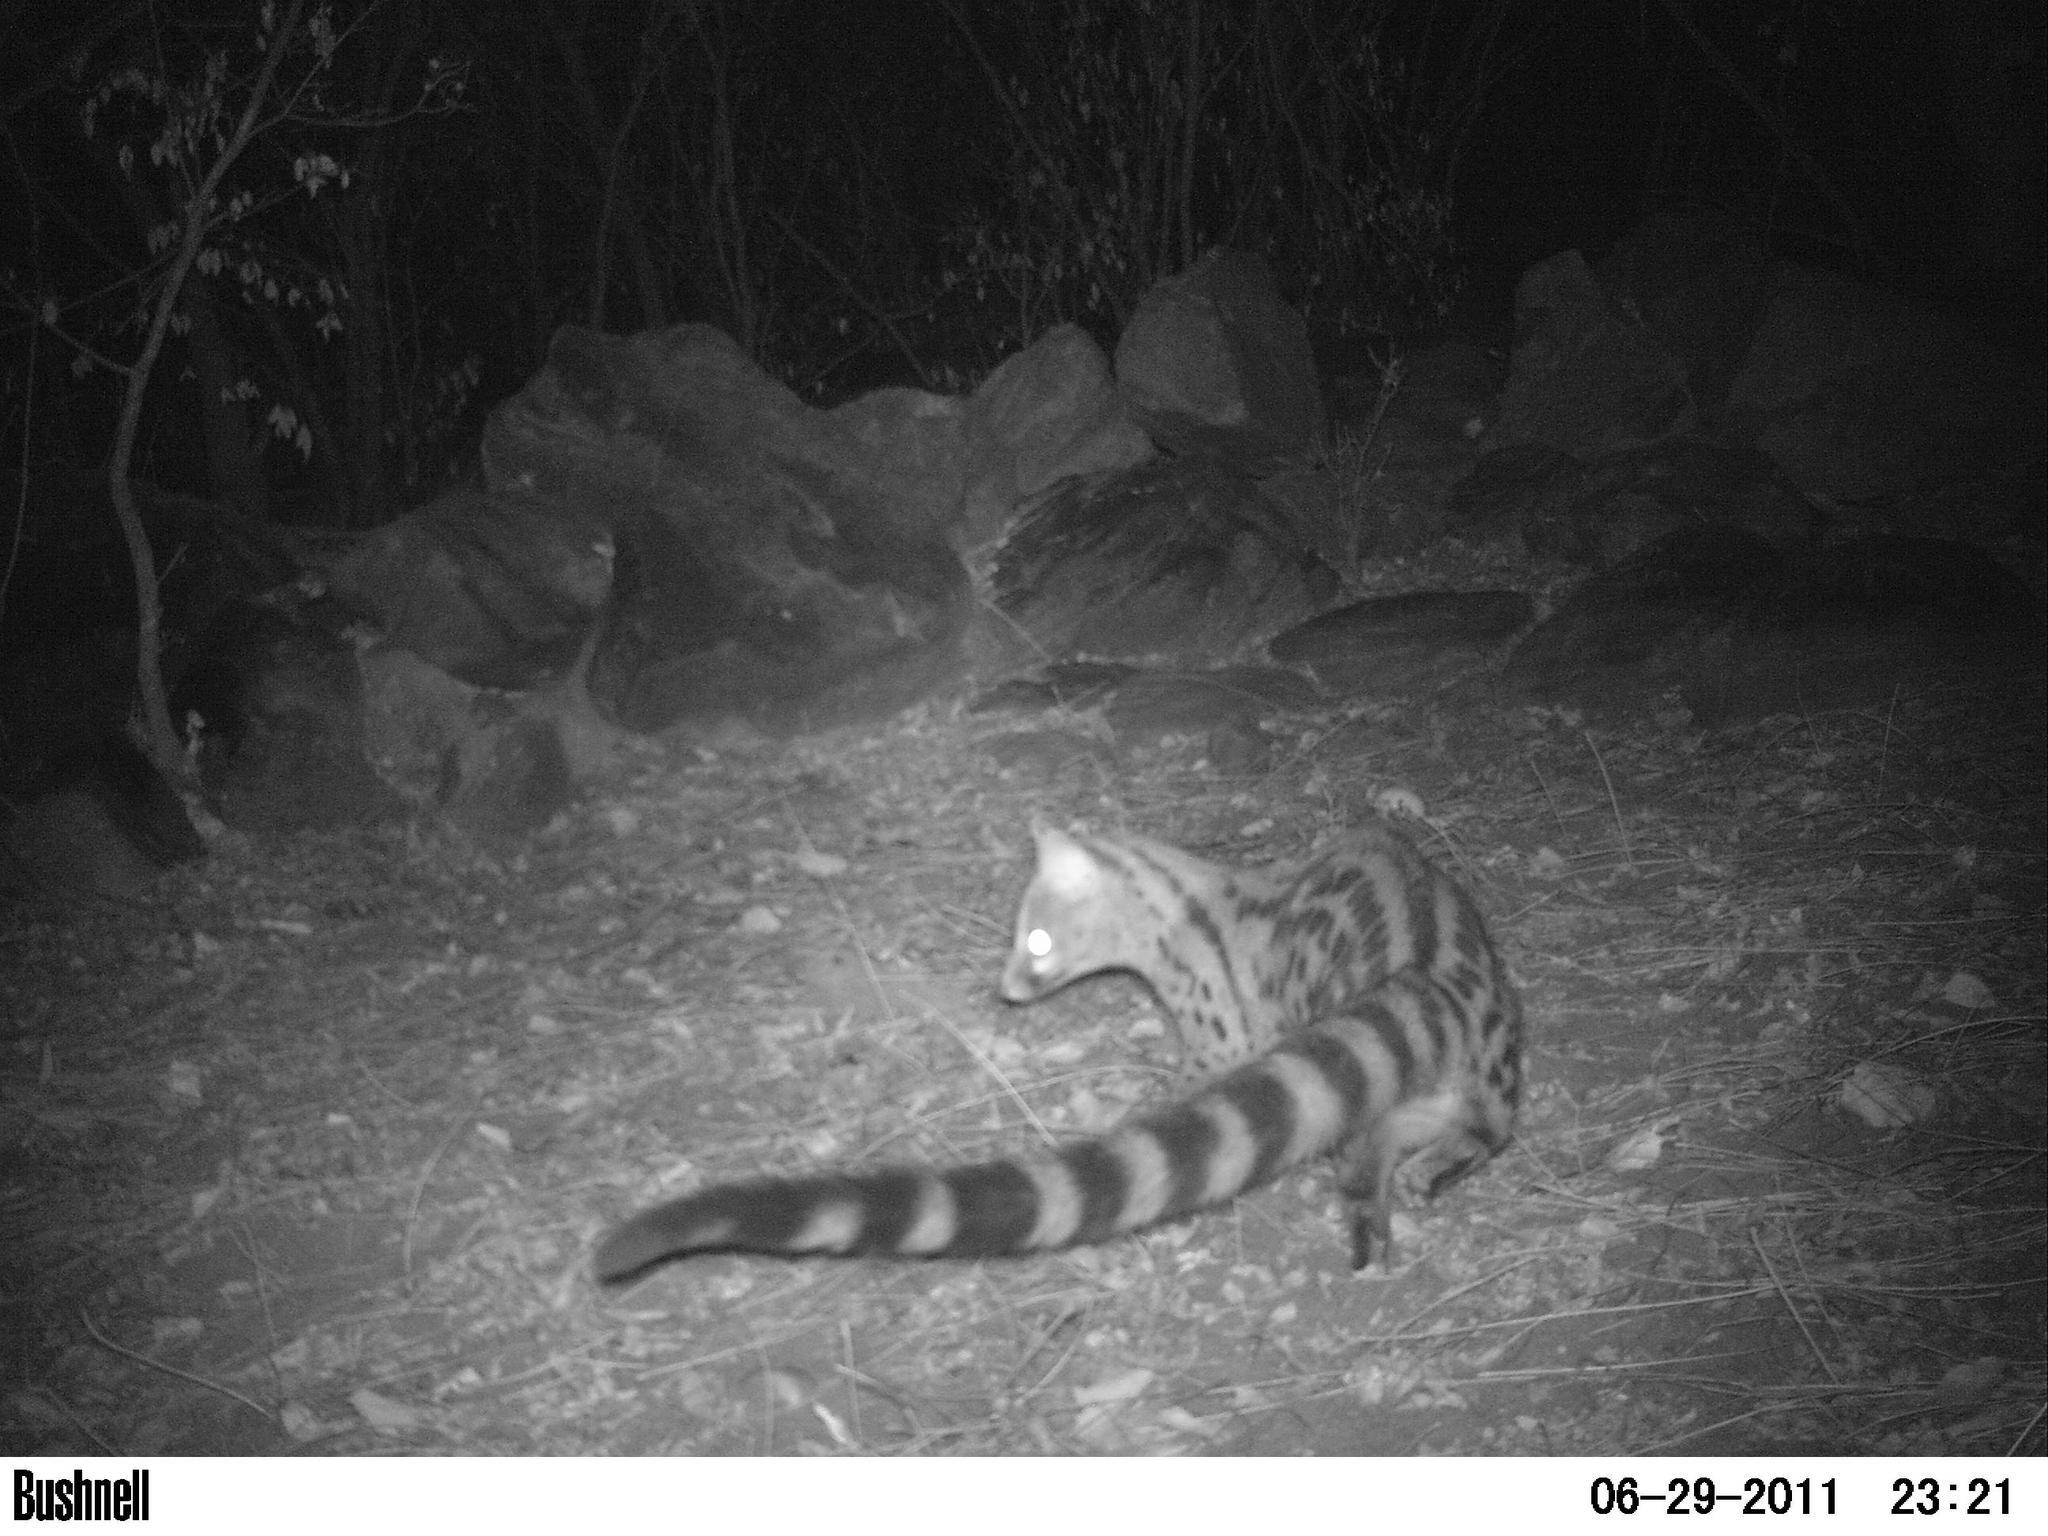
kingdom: Animalia
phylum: Chordata
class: Mammalia
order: Carnivora
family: Viverridae
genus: Genetta
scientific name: Genetta maculata
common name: Rusty-spotted genet
